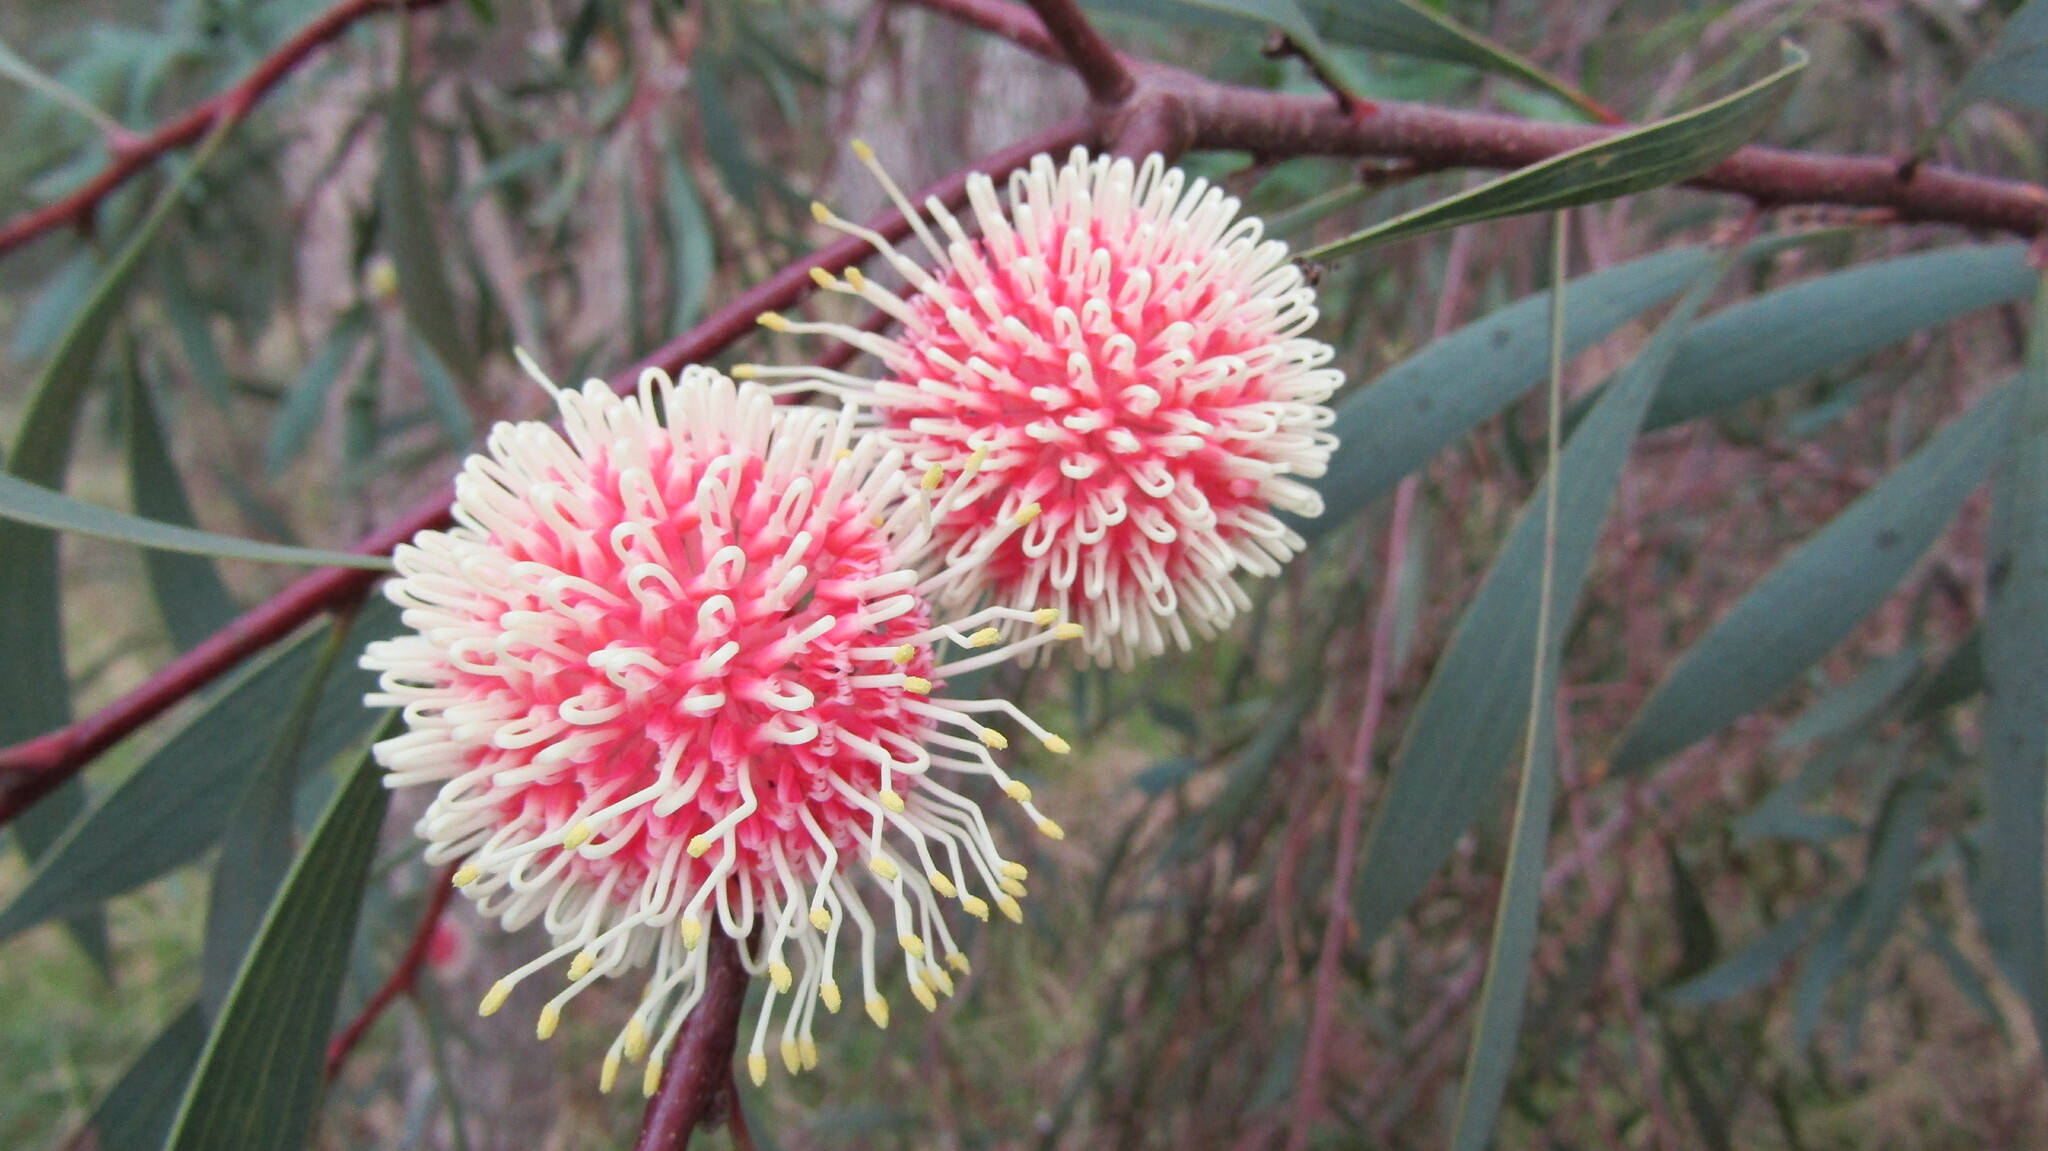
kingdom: Plantae
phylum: Tracheophyta
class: Magnoliopsida
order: Proteales
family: Proteaceae
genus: Hakea
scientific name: Hakea laurina
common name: Cushion hakea
